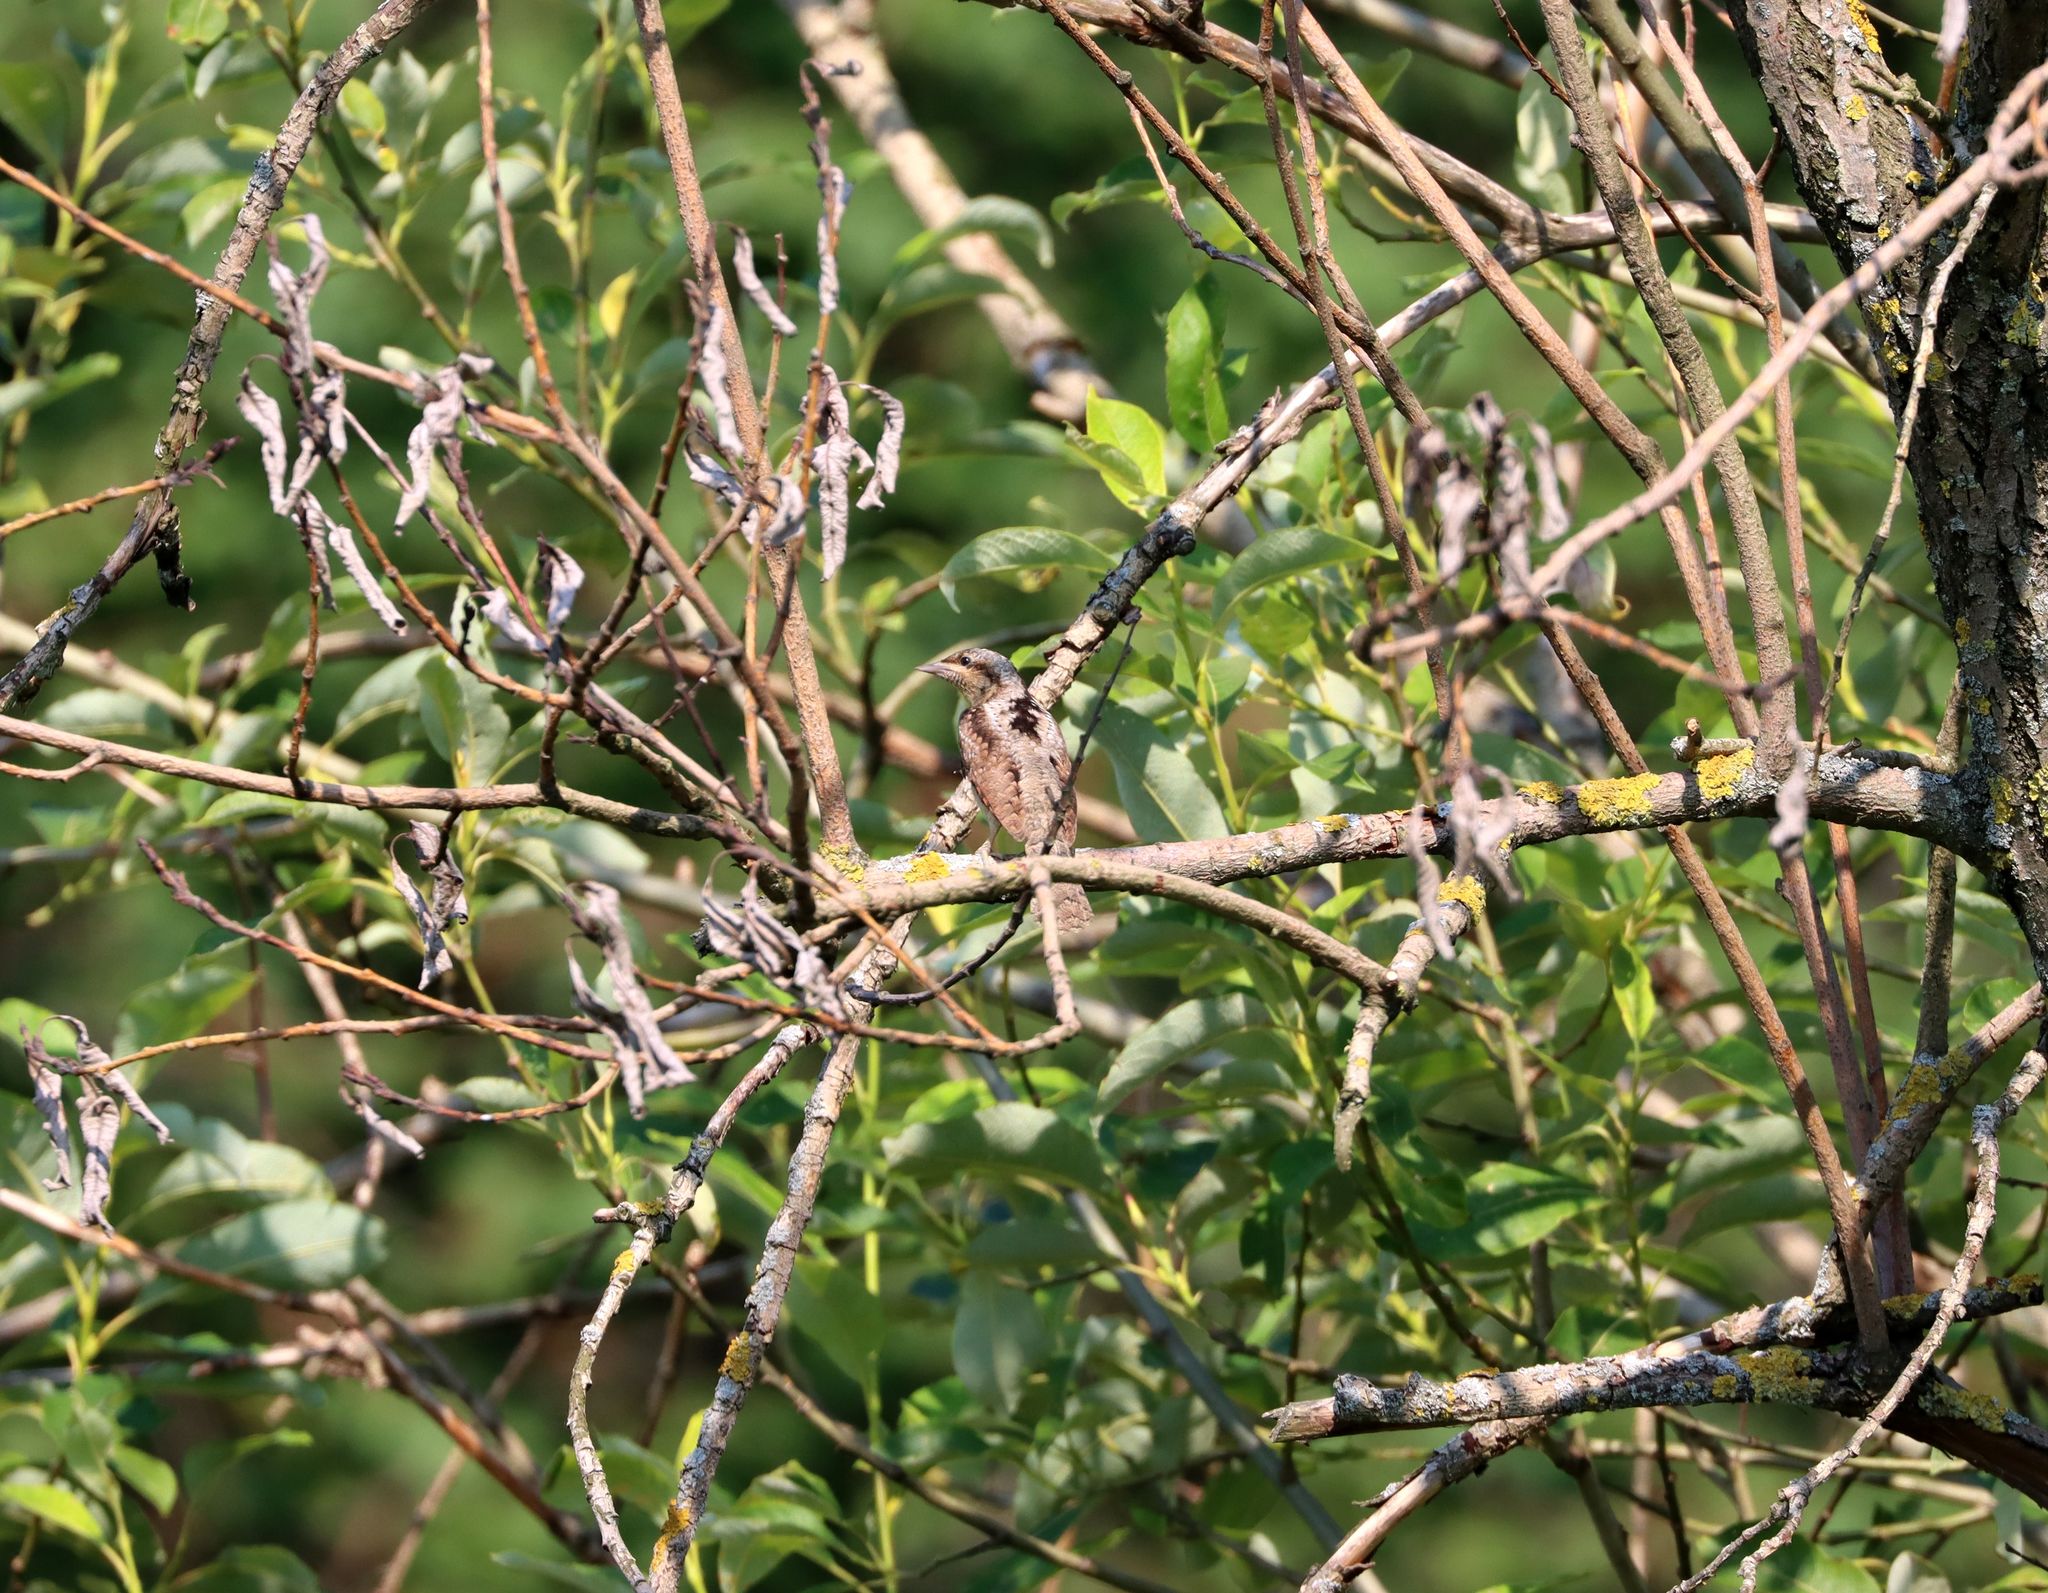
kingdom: Animalia
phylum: Chordata
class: Aves
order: Piciformes
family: Picidae
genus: Jynx
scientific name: Jynx torquilla
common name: Eurasian wryneck
